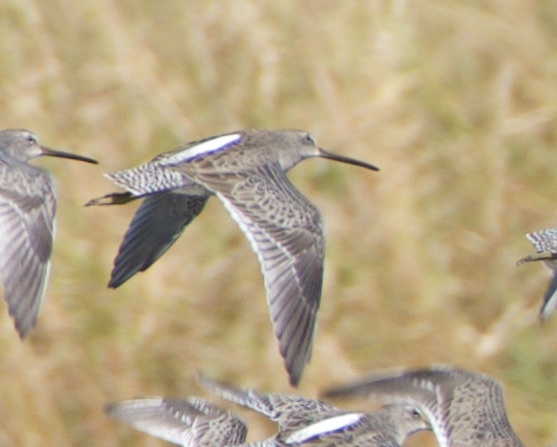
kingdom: Animalia
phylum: Chordata
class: Aves
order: Charadriiformes
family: Scolopacidae
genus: Limnodromus
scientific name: Limnodromus scolopaceus
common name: Long-billed dowitcher
